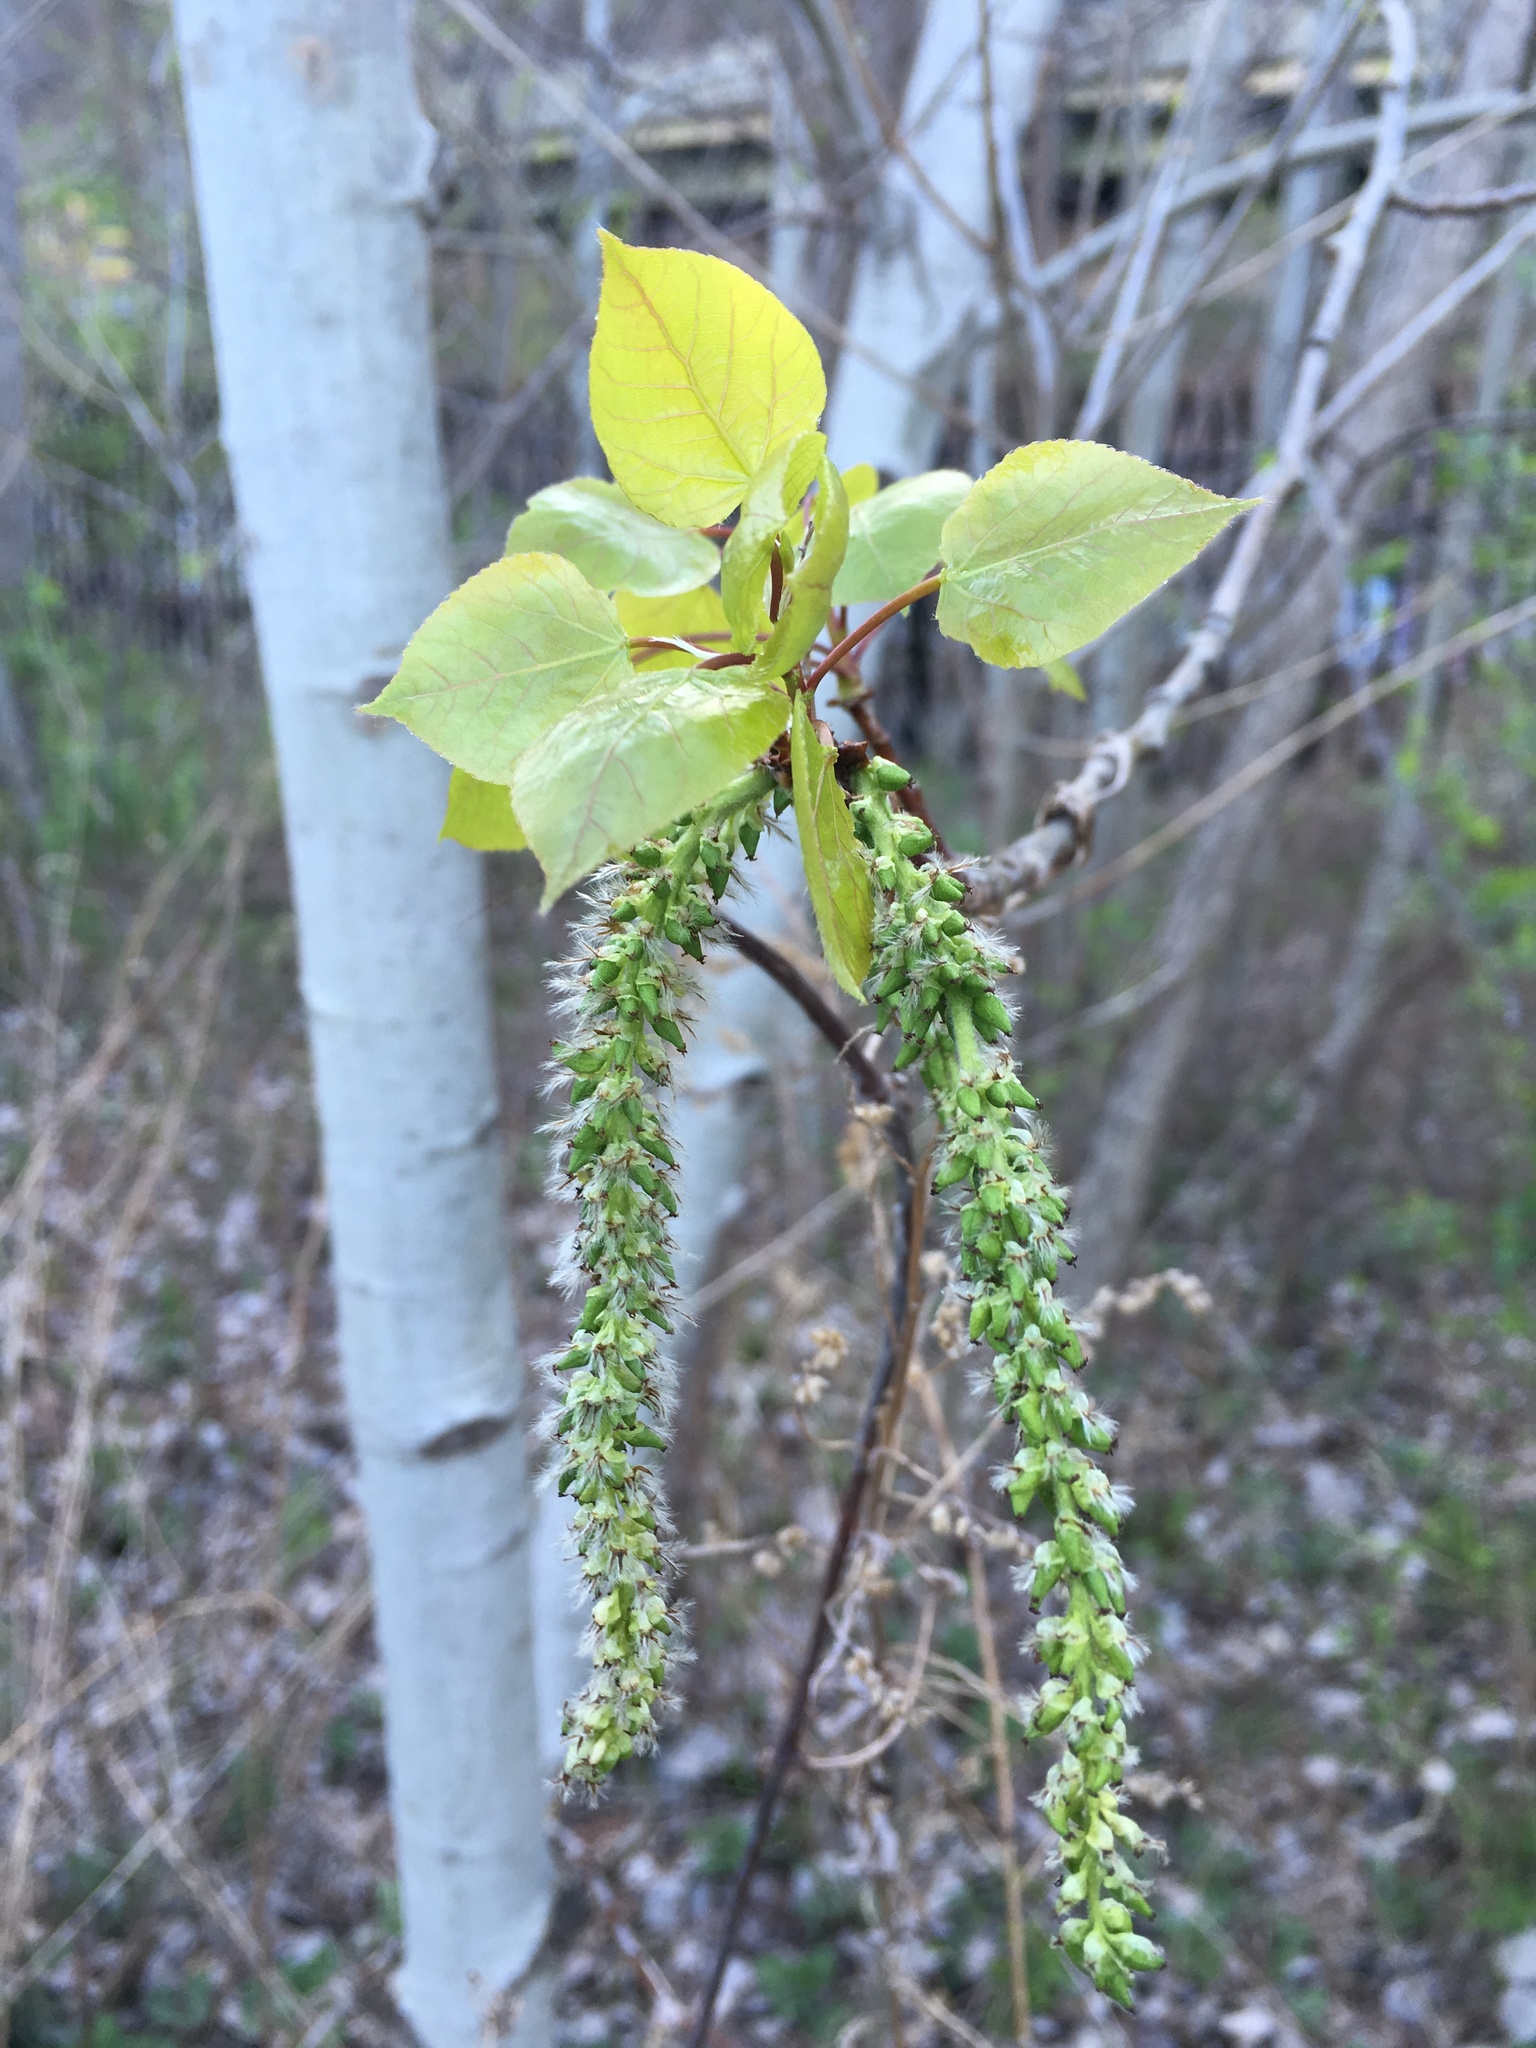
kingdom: Plantae
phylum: Tracheophyta
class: Magnoliopsida
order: Malpighiales
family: Salicaceae
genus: Populus
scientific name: Populus tremuloides
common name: Quaking aspen
